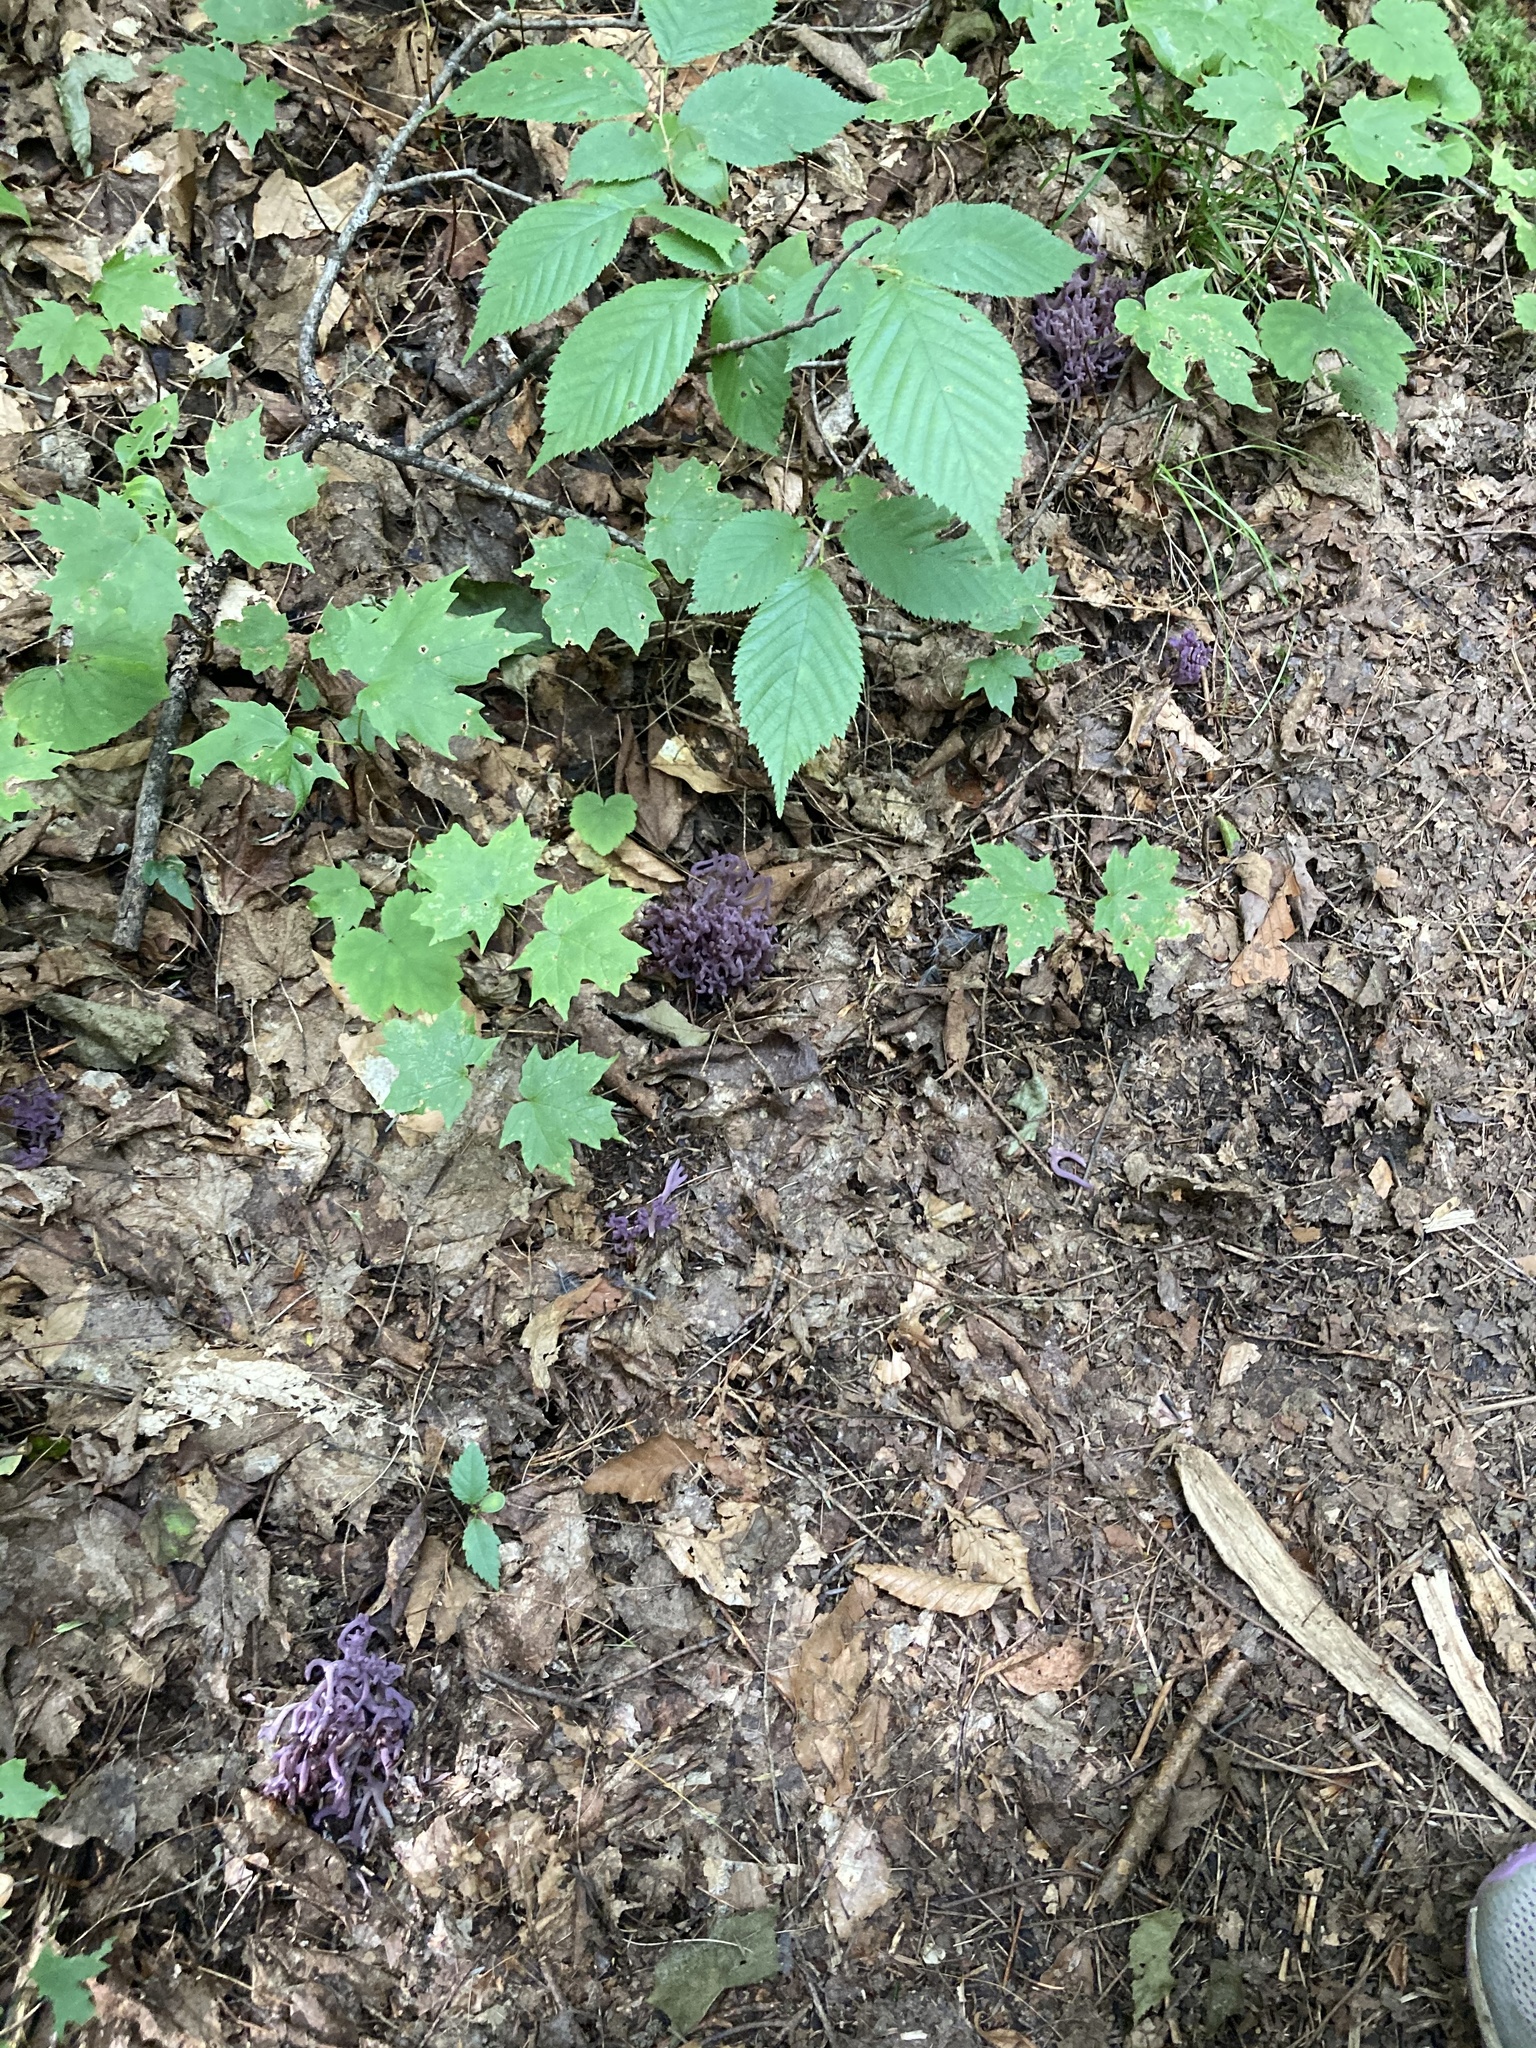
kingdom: Fungi
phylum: Basidiomycota
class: Agaricomycetes
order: Agaricales
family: Clavariaceae
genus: Clavaria
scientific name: Clavaria zollingeri
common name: Violet coral
